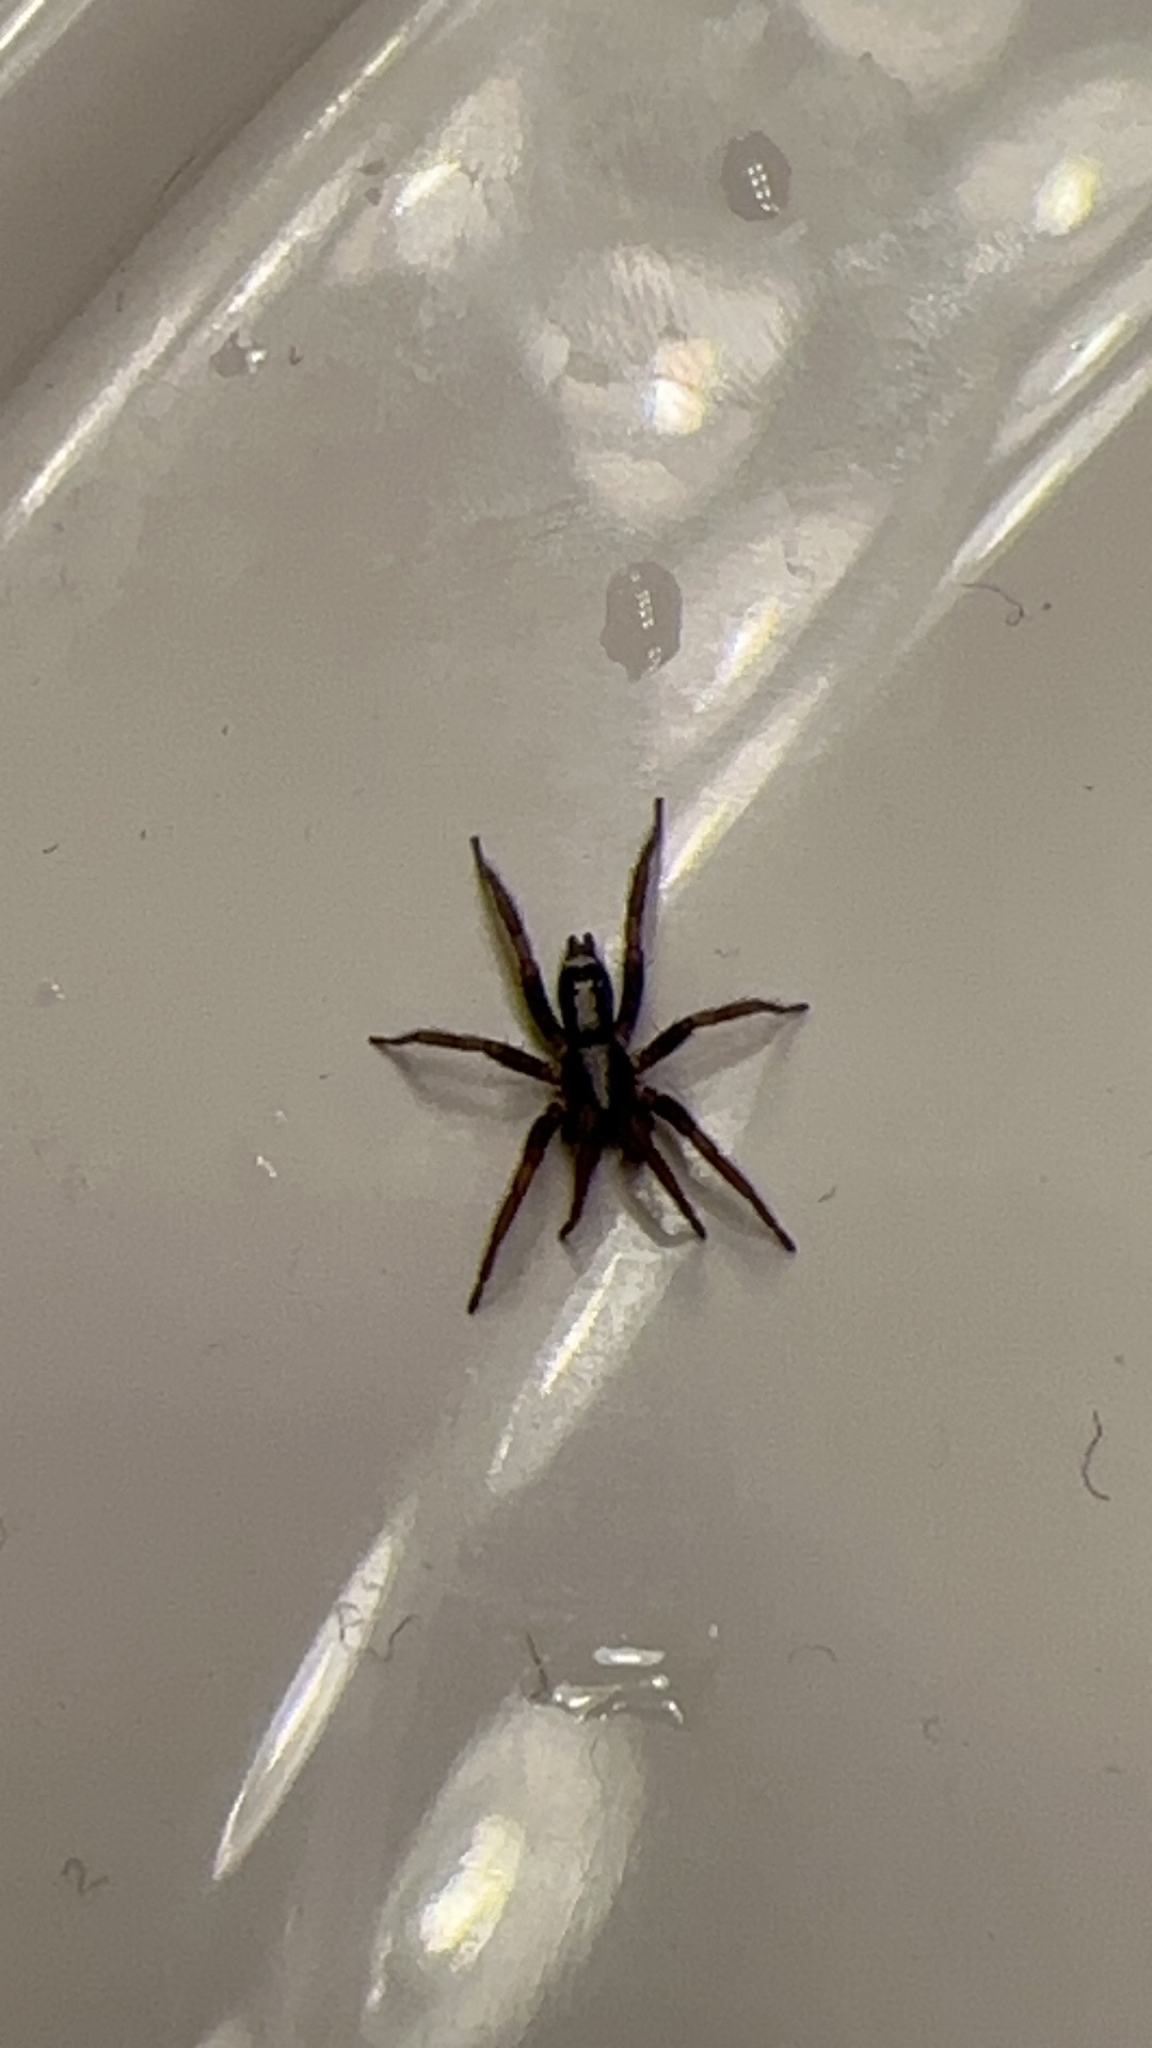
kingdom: Animalia
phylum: Arthropoda
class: Arachnida
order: Araneae
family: Gnaphosidae
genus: Herpyllus
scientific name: Herpyllus ecclesiasticus
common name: Eastern parson spider
